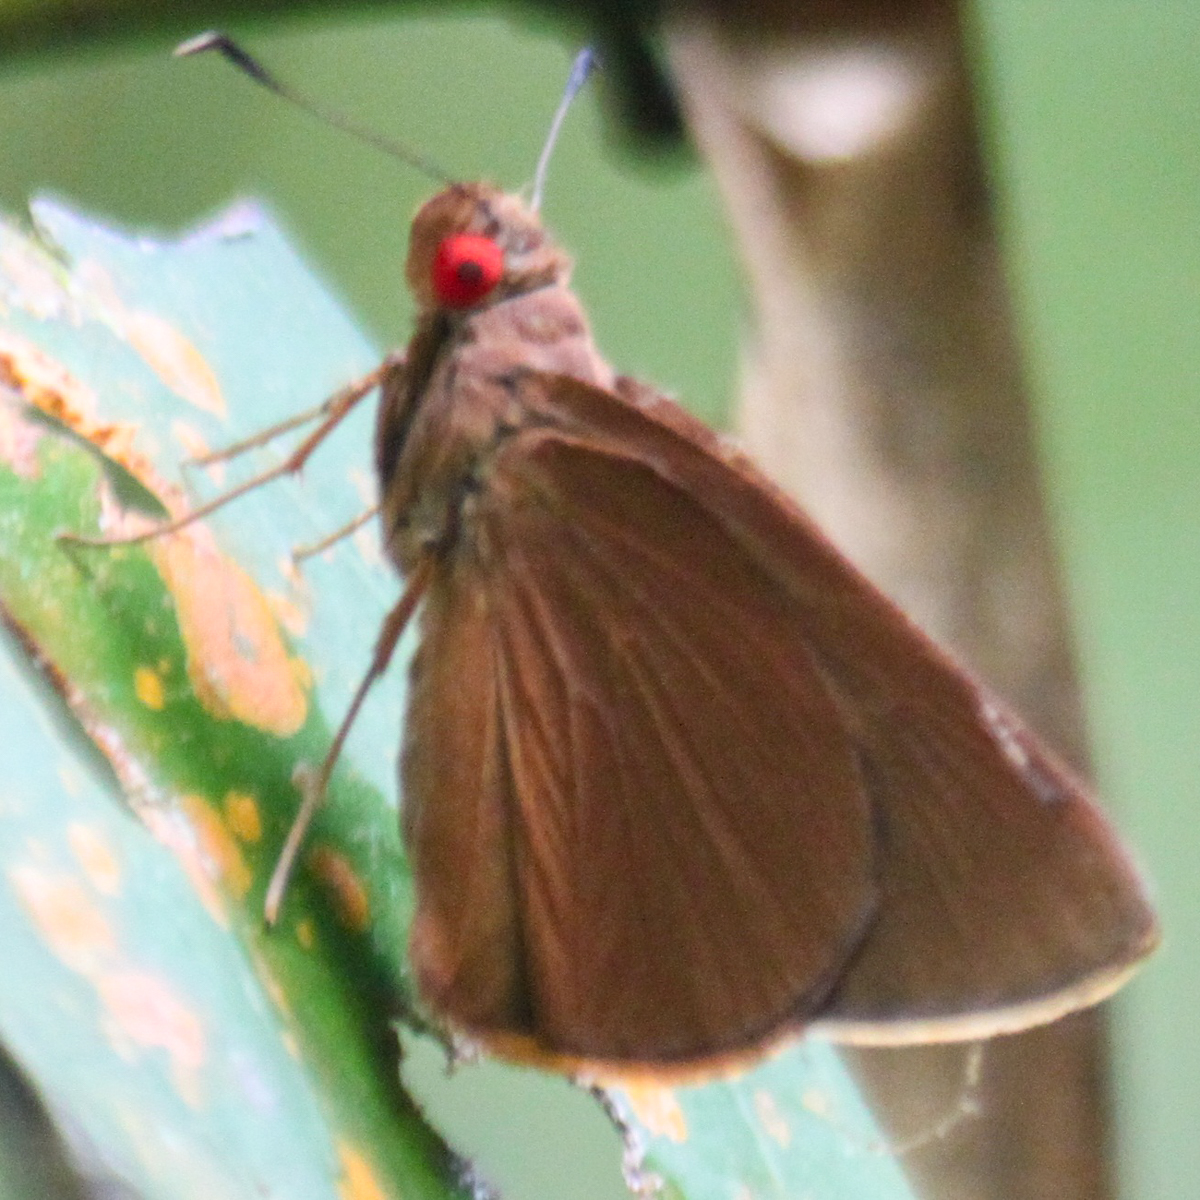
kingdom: Animalia
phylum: Arthropoda
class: Insecta
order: Lepidoptera
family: Hesperiidae
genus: Matapa
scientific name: Matapa druna
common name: Grey-brand redeye
